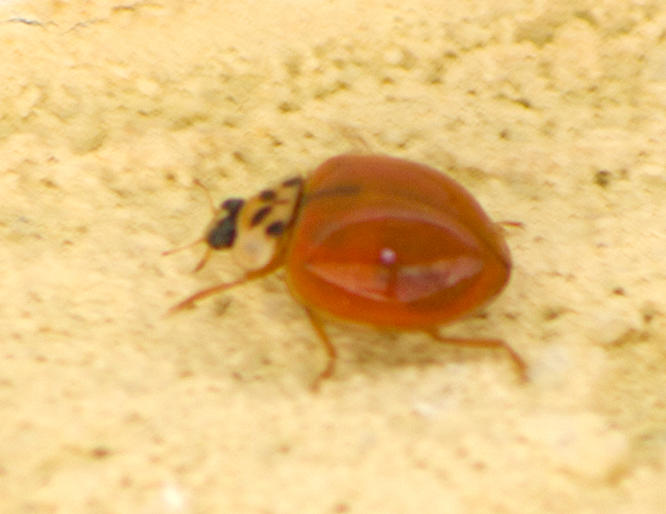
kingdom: Animalia
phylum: Arthropoda
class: Insecta
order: Coleoptera
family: Coccinellidae
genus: Harmonia
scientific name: Harmonia axyridis
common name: Harlequin ladybird
